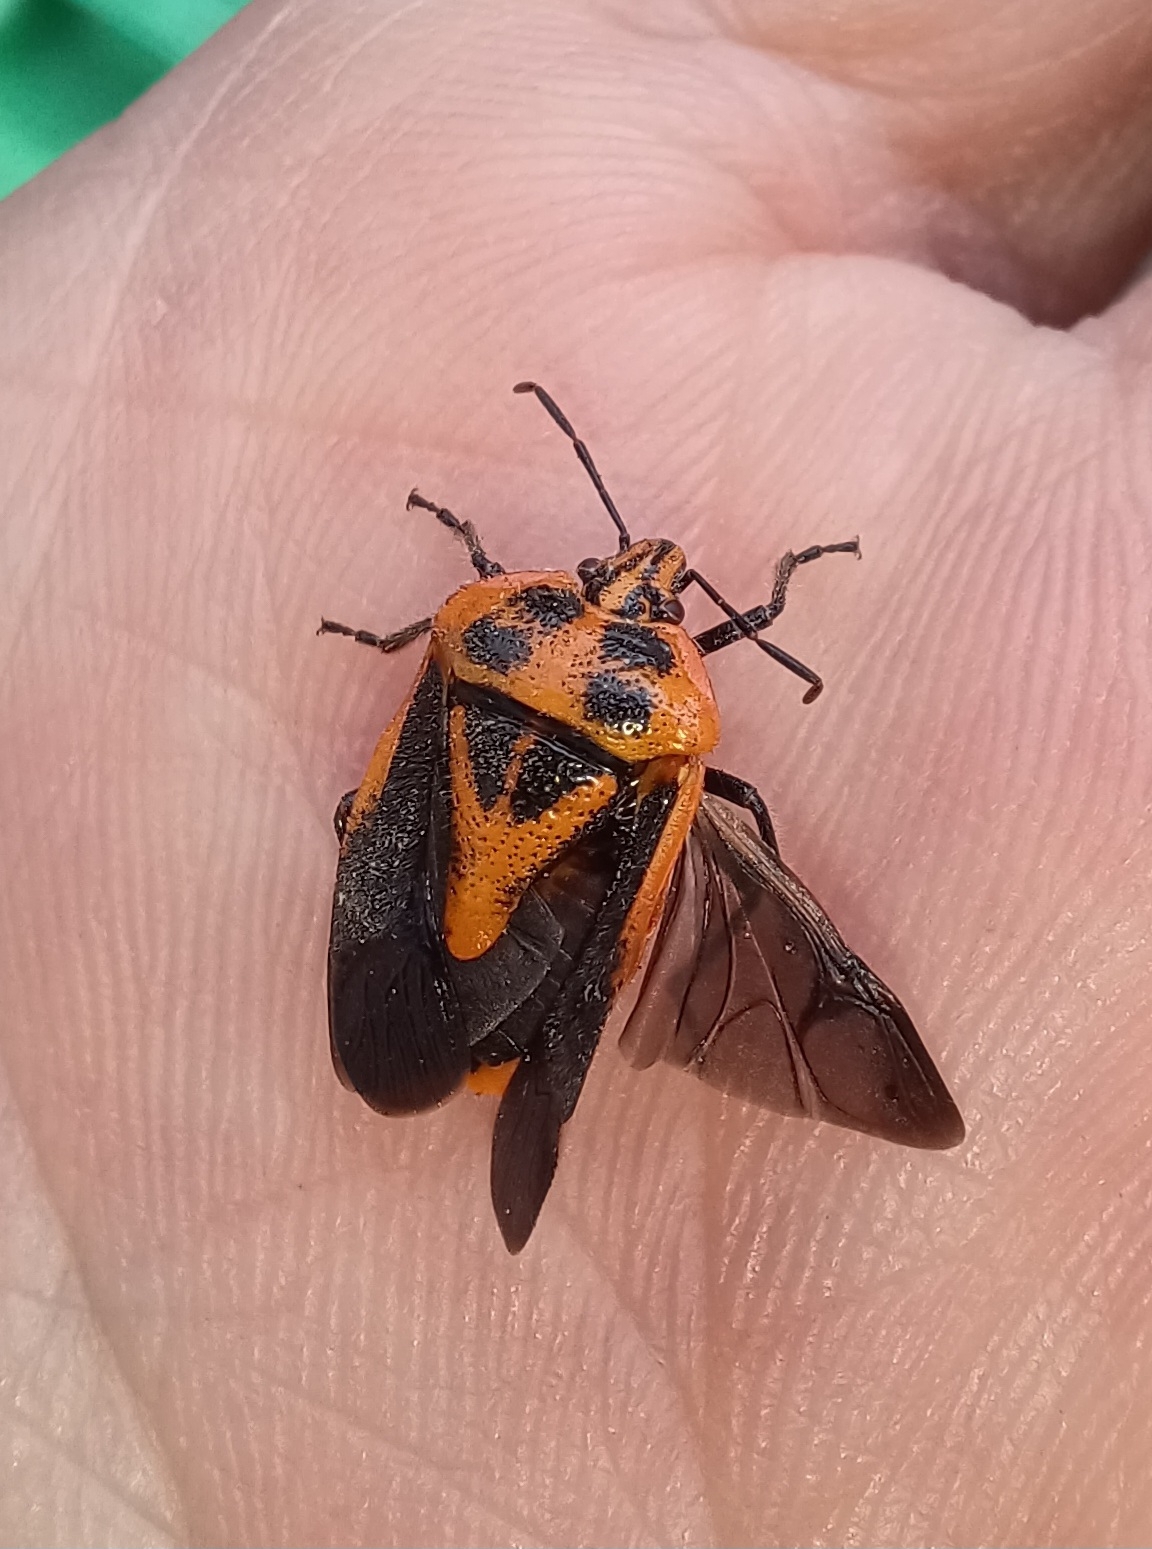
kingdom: Animalia
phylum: Arthropoda
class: Insecta
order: Hemiptera
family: Pentatomidae
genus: Agonoscelis
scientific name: Agonoscelis rutila
